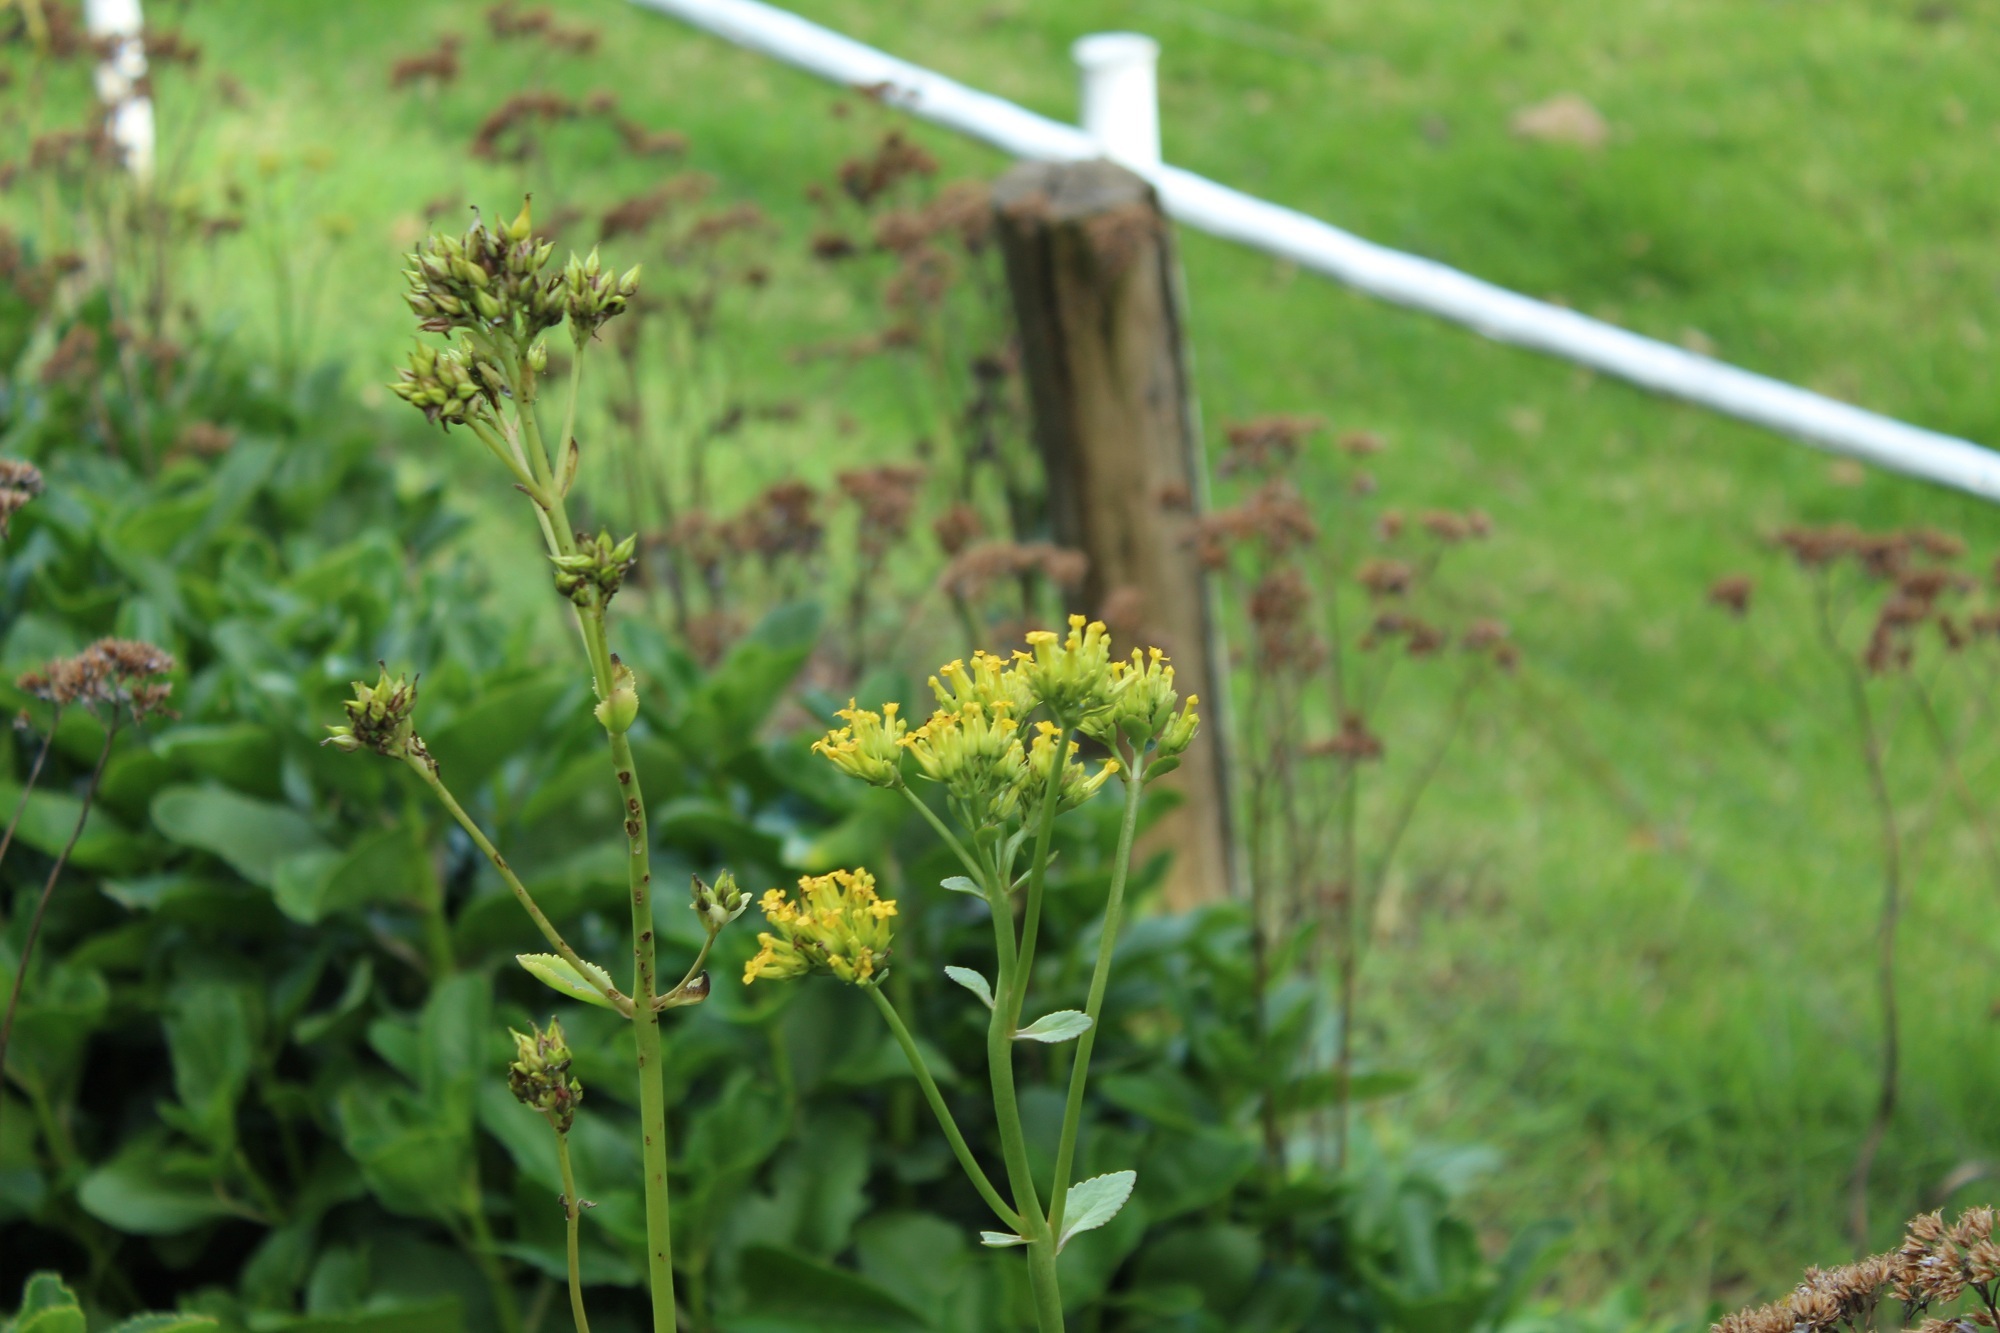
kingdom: Plantae
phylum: Tracheophyta
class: Magnoliopsida
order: Saxifragales
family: Crassulaceae
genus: Kalanchoe
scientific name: Kalanchoe densiflora
